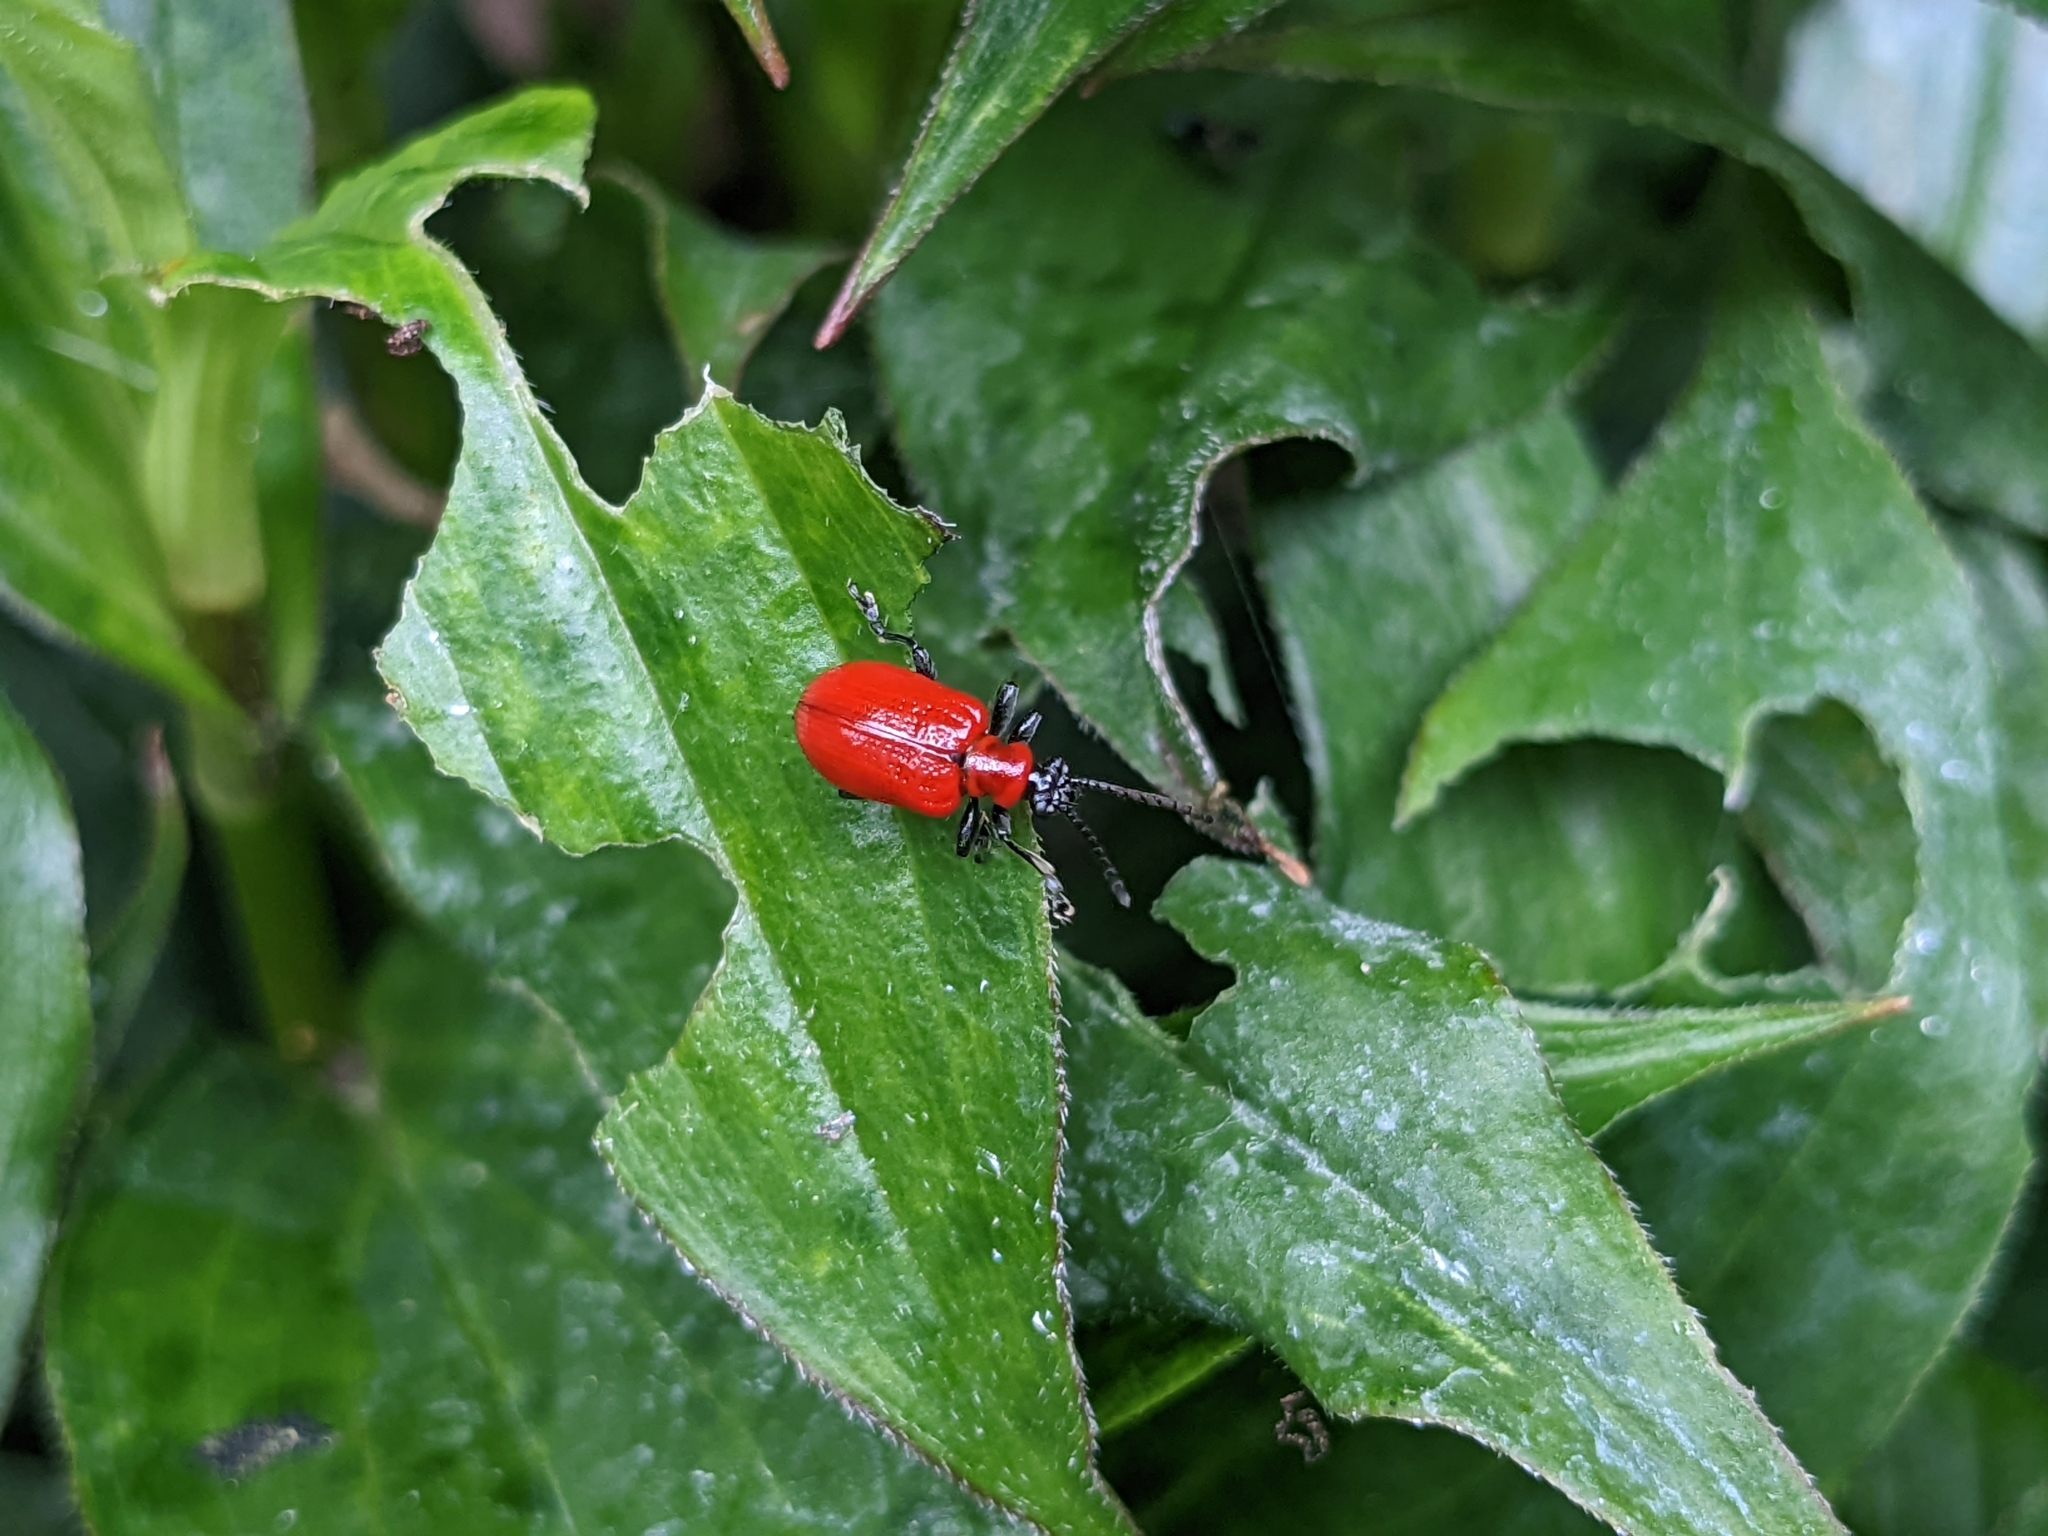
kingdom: Animalia
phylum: Arthropoda
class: Insecta
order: Coleoptera
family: Chrysomelidae
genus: Lilioceris
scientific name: Lilioceris lilii
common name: Lily beetle
